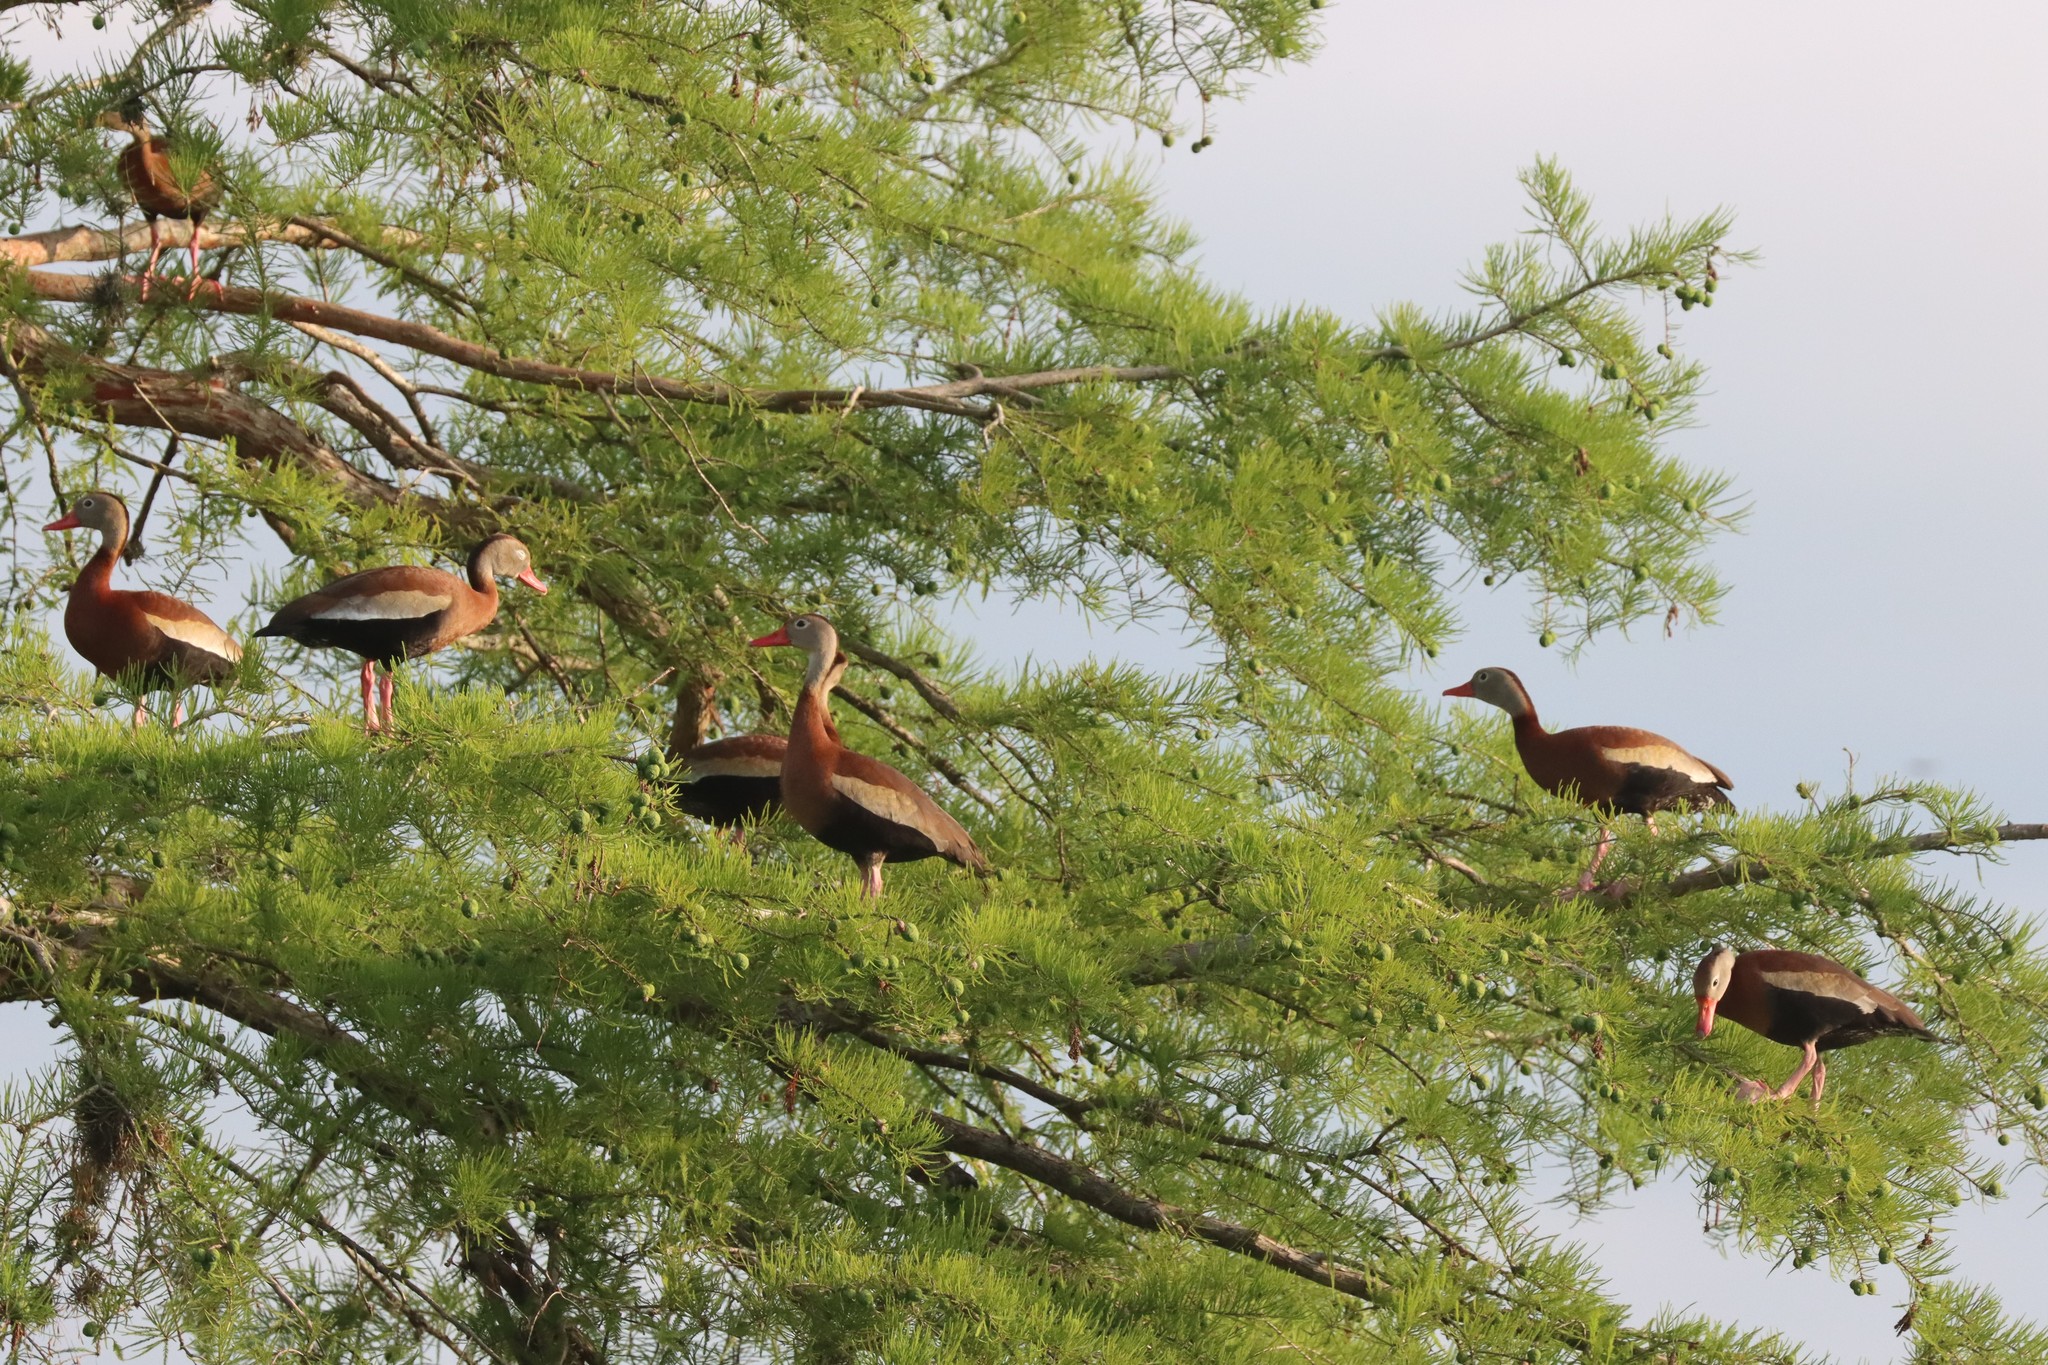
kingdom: Animalia
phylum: Chordata
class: Aves
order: Anseriformes
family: Anatidae
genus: Dendrocygna
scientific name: Dendrocygna autumnalis
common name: Black-bellied whistling duck
